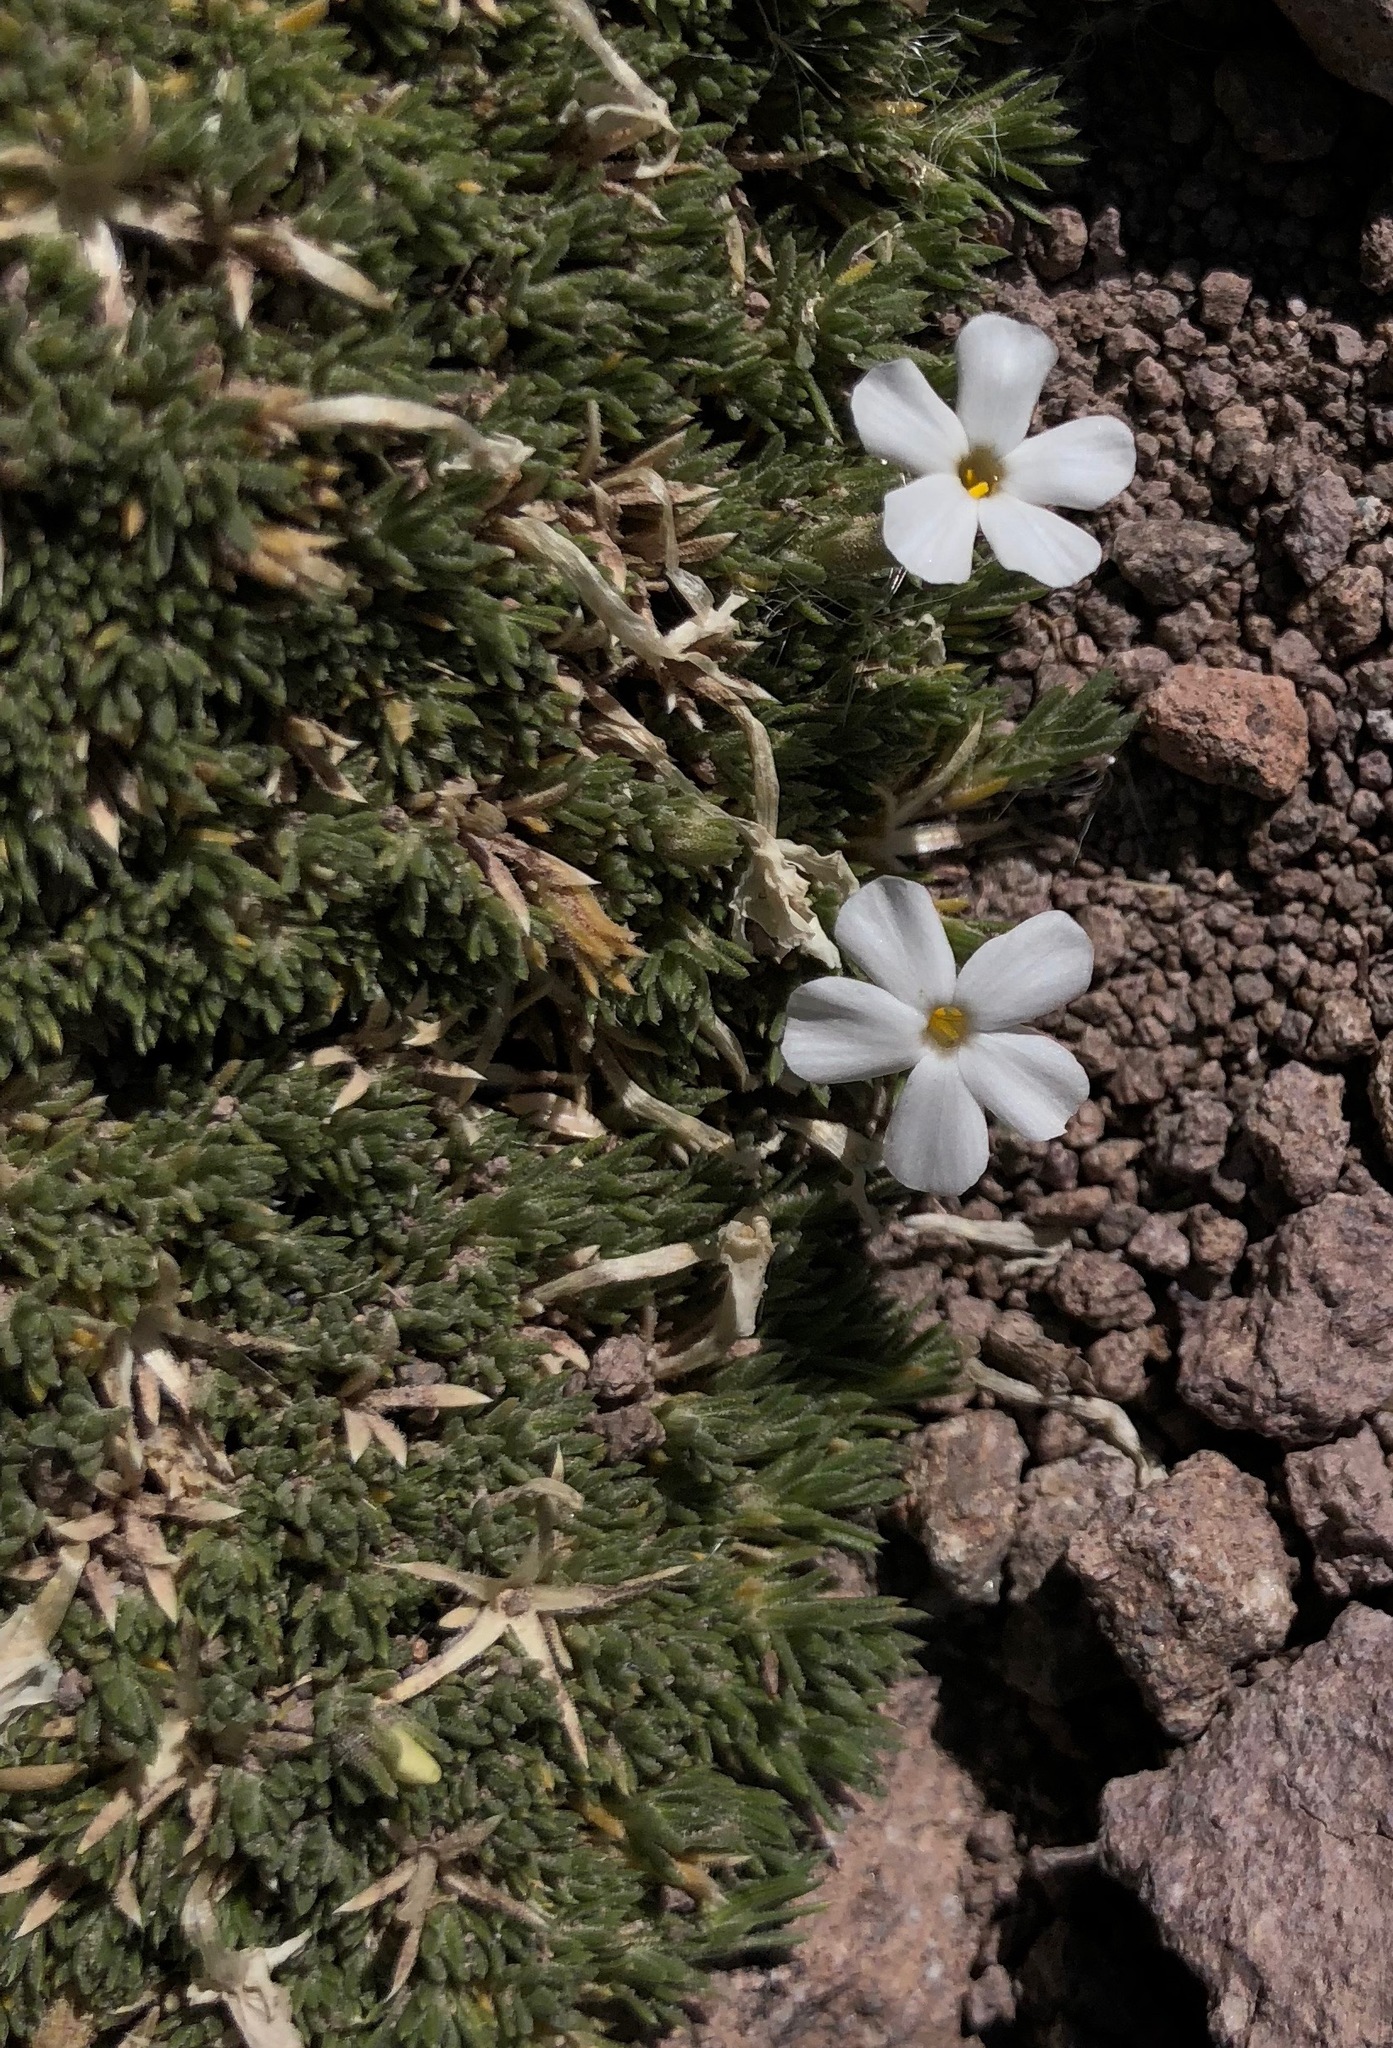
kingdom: Plantae
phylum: Tracheophyta
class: Magnoliopsida
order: Ericales
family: Polemoniaceae
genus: Phlox
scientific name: Phlox condensata
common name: Compact phlox
